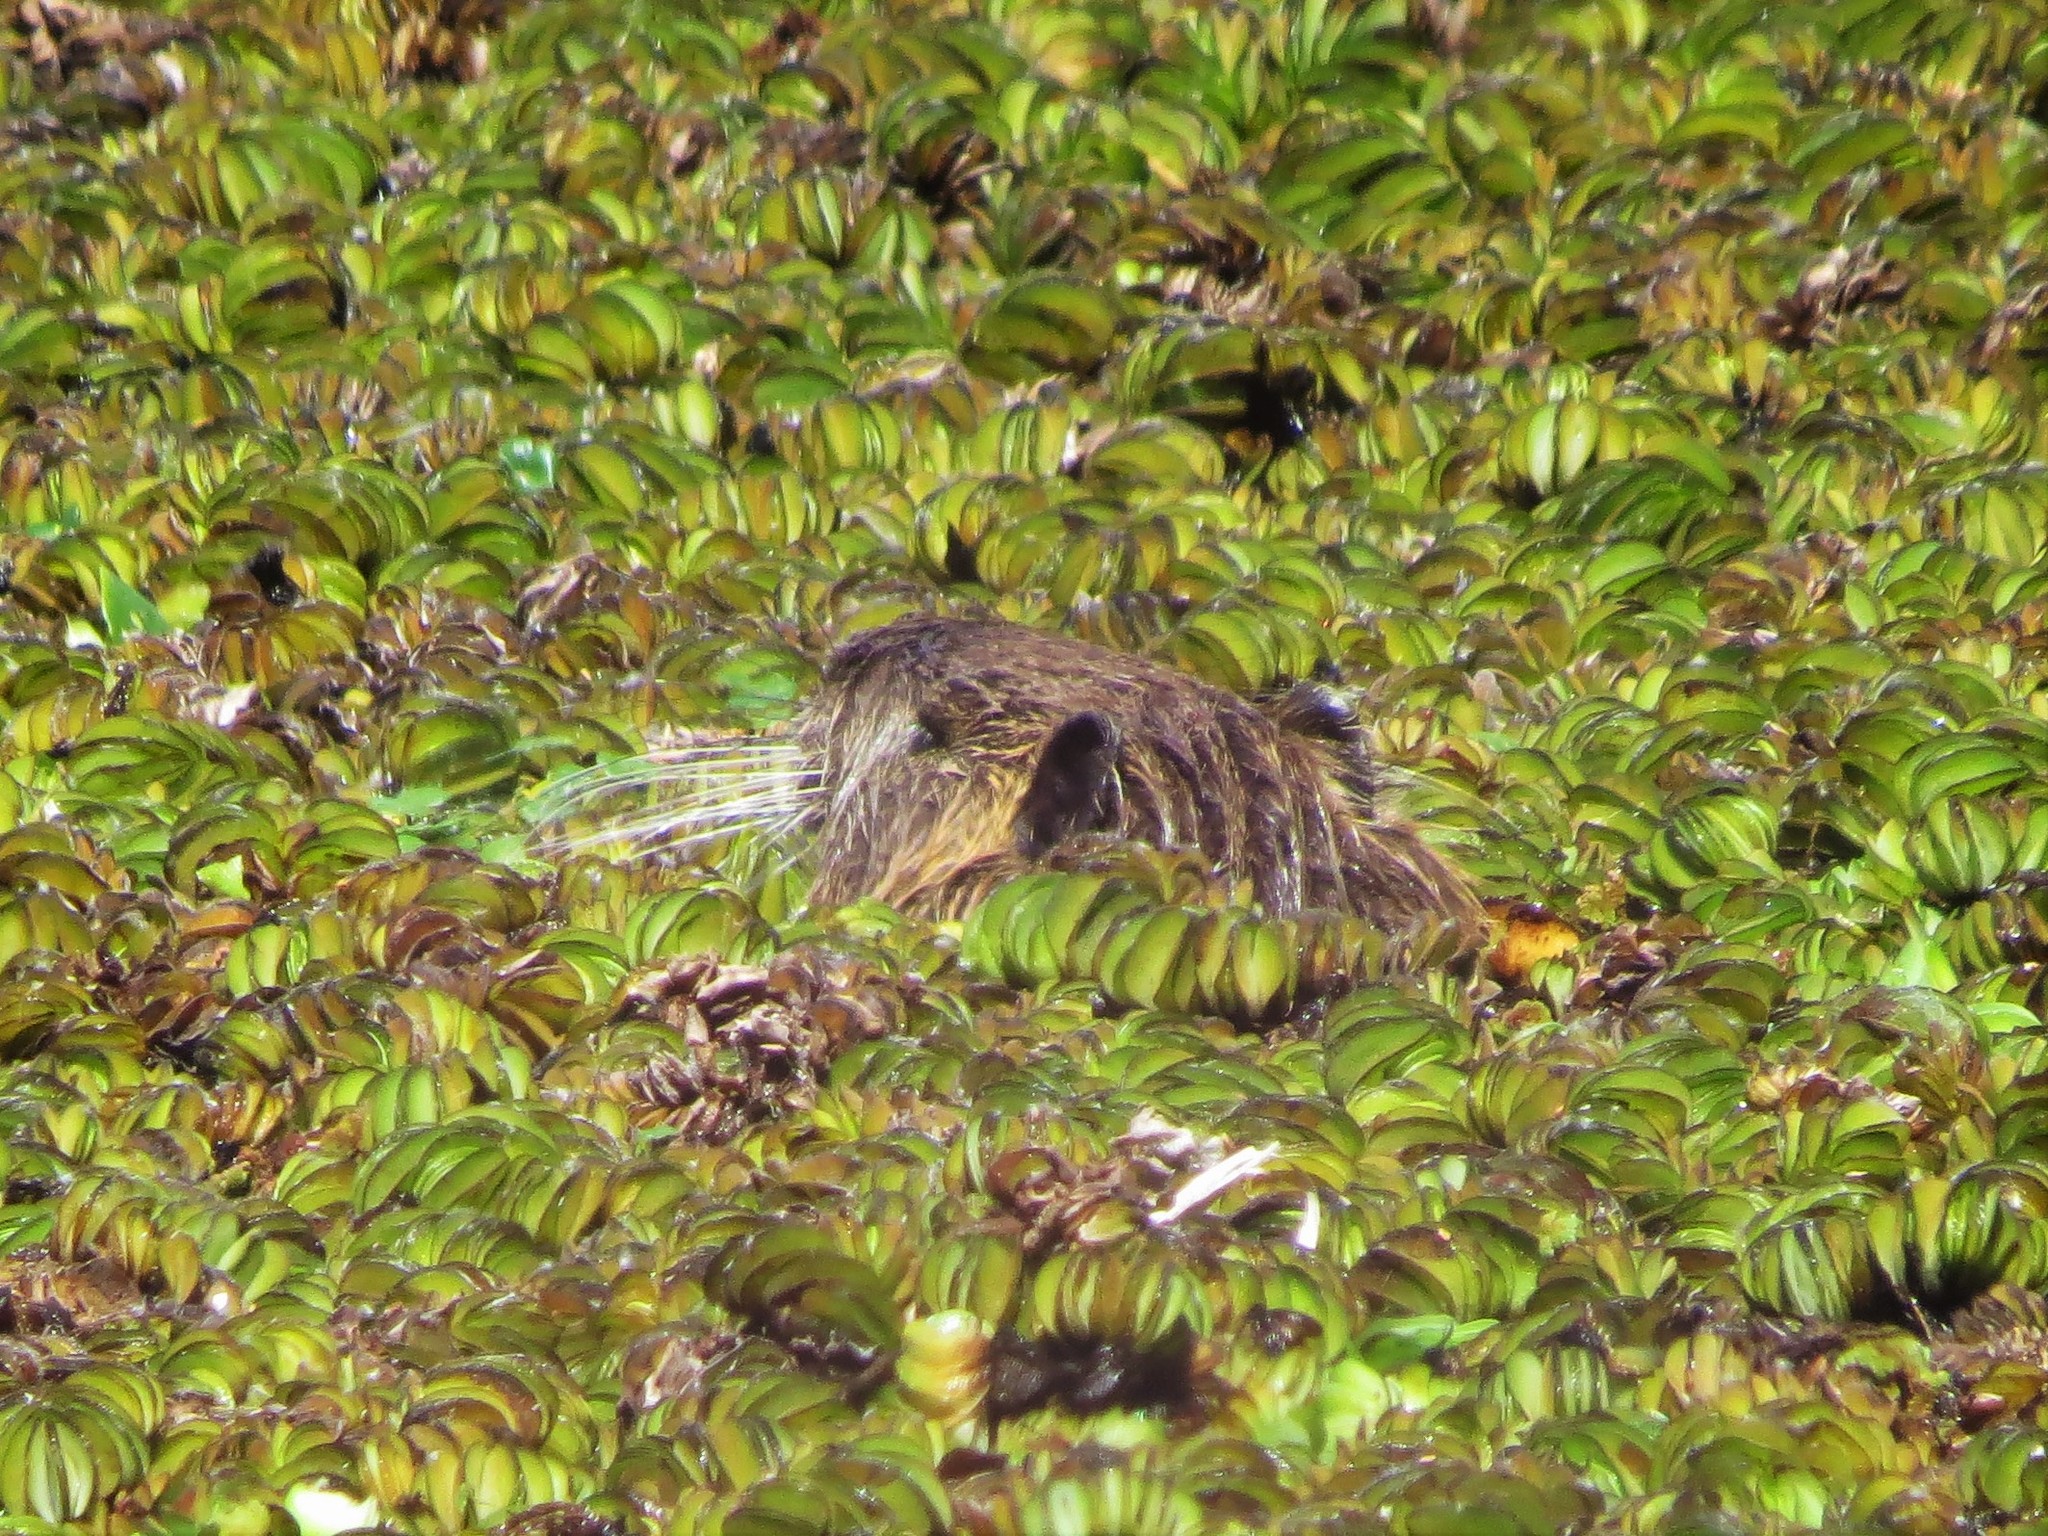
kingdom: Animalia
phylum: Chordata
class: Mammalia
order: Rodentia
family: Myocastoridae
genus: Myocastor
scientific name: Myocastor coypus
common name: Coypu
